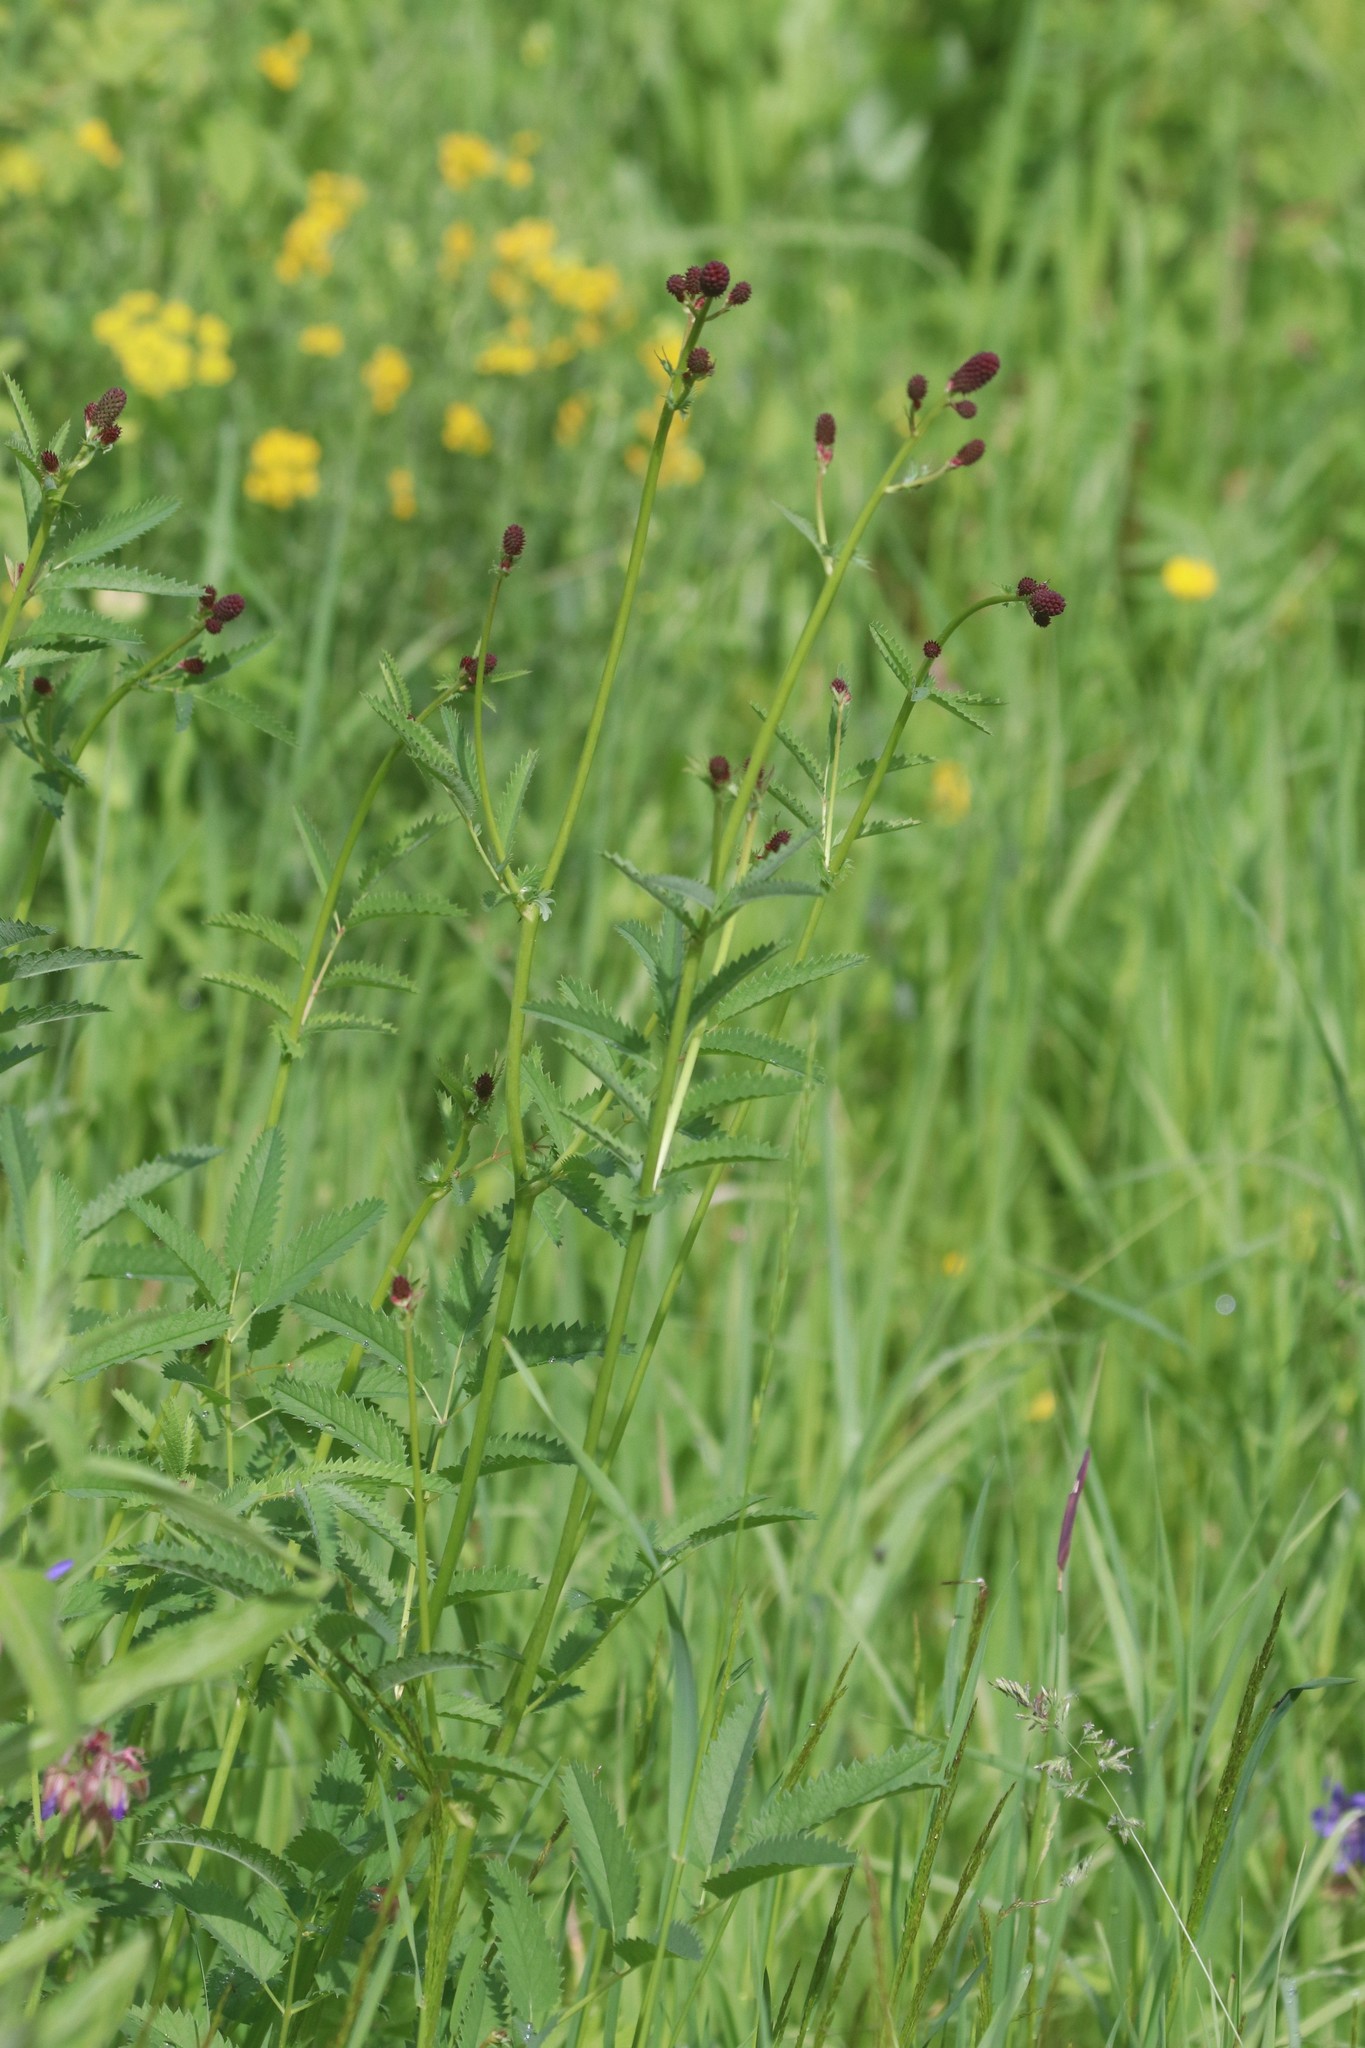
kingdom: Plantae
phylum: Tracheophyta
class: Magnoliopsida
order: Rosales
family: Rosaceae
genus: Sanguisorba
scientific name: Sanguisorba officinalis
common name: Great burnet
